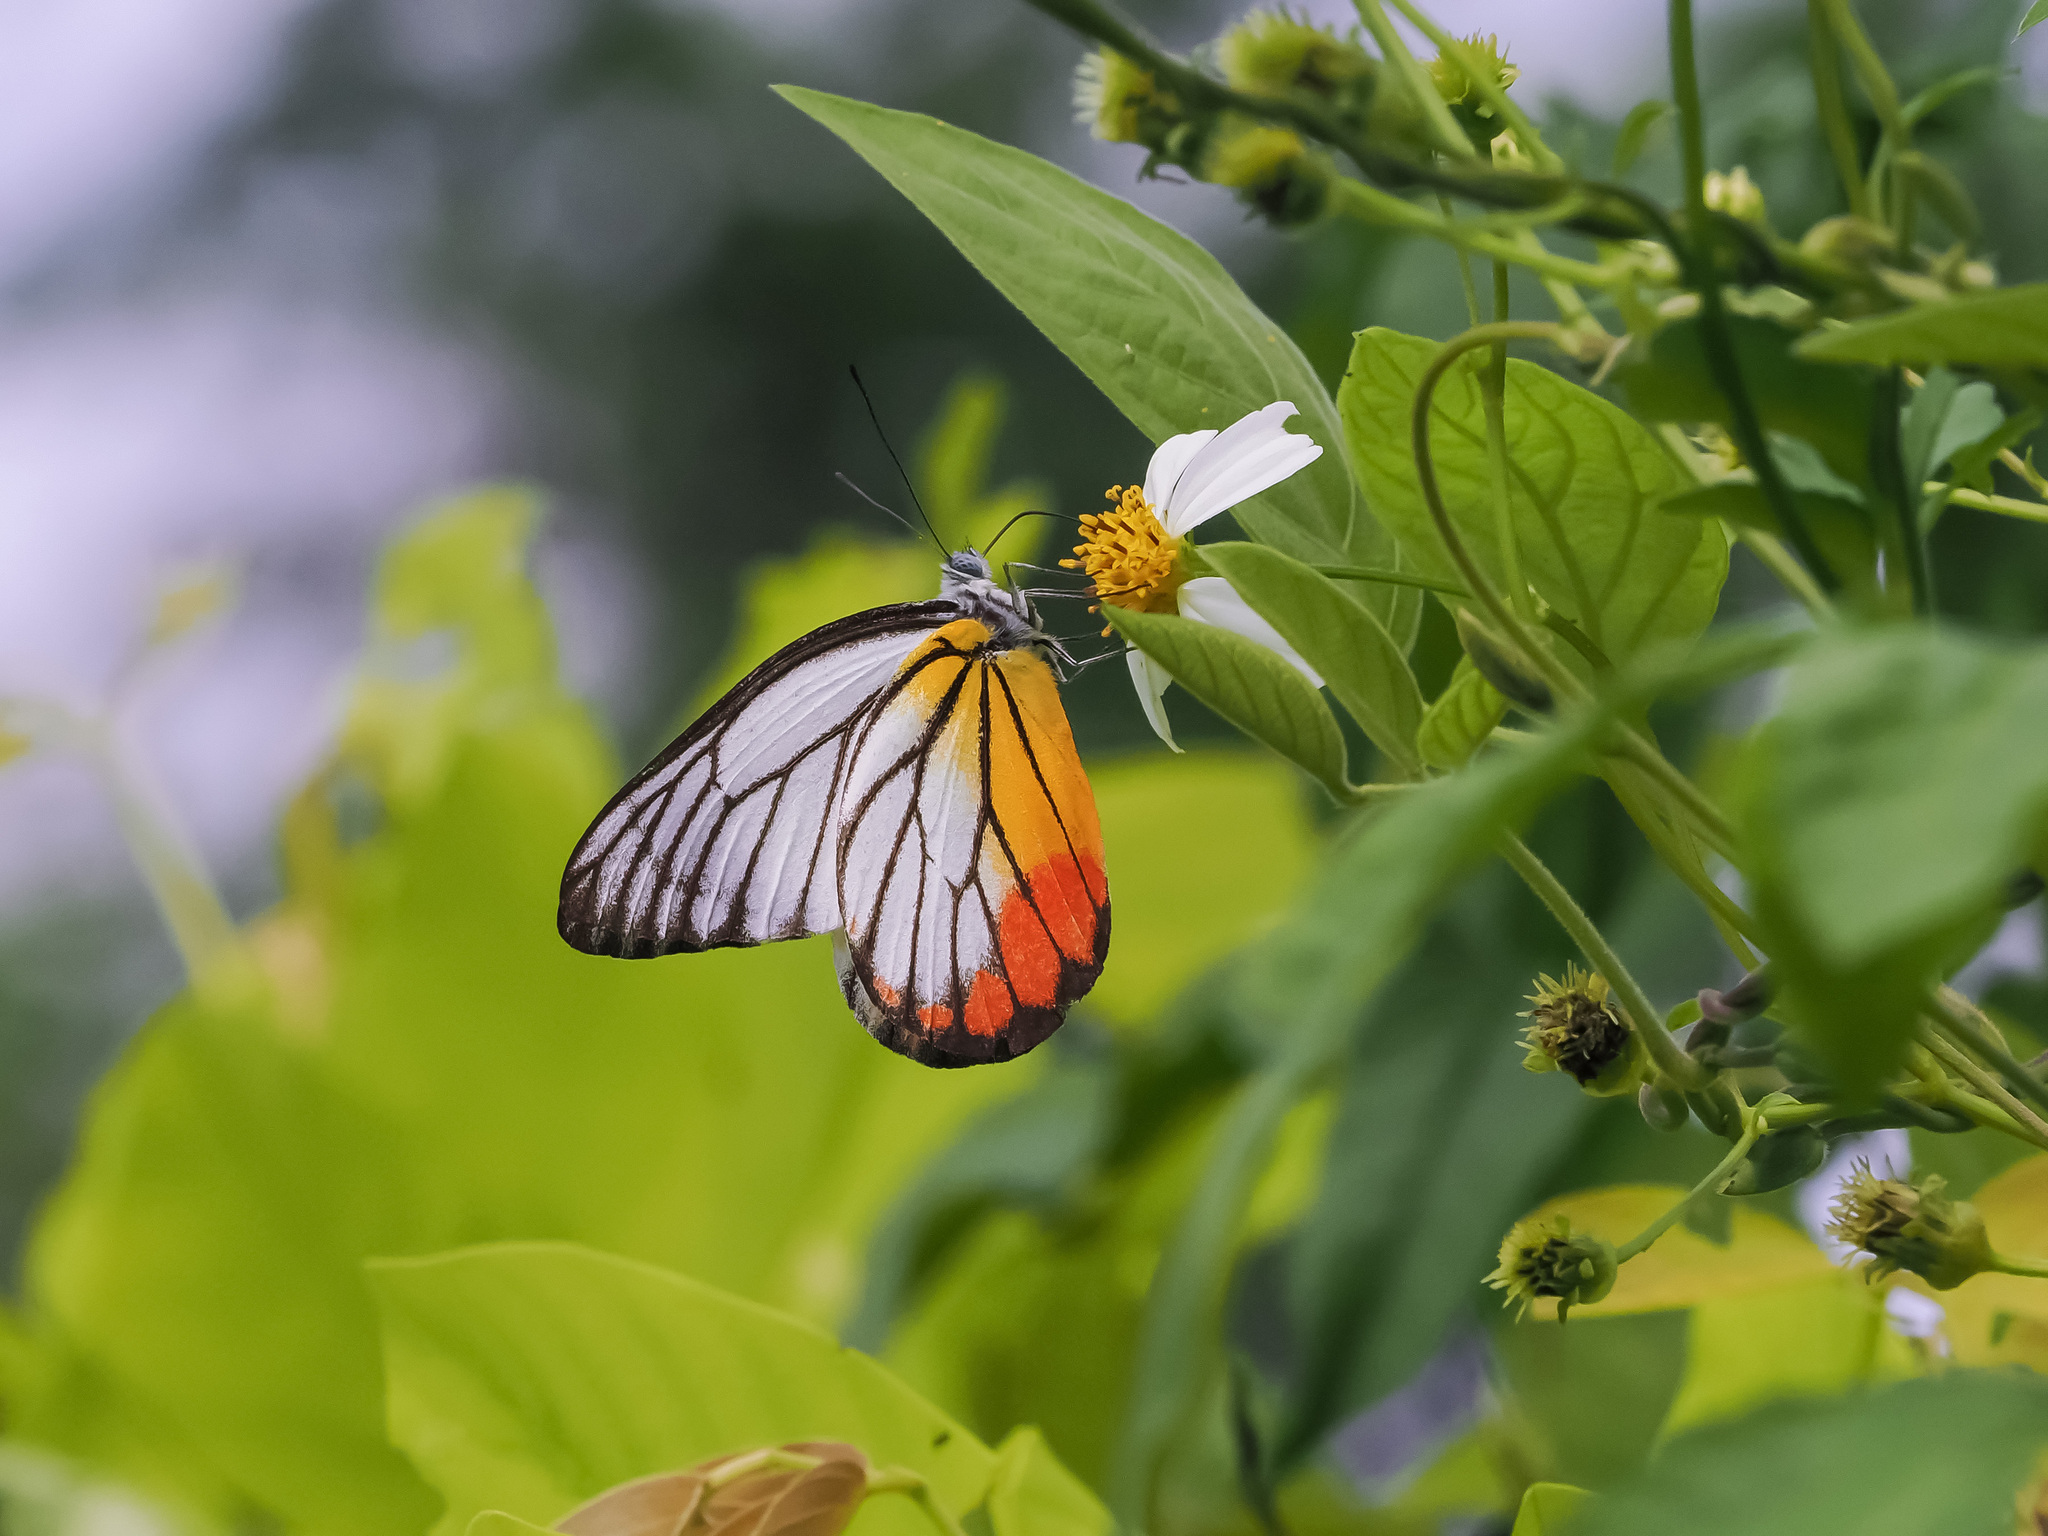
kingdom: Animalia
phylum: Arthropoda
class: Insecta
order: Lepidoptera
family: Pieridae
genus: Delias
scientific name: Delias hyparete
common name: Painted jezebel
